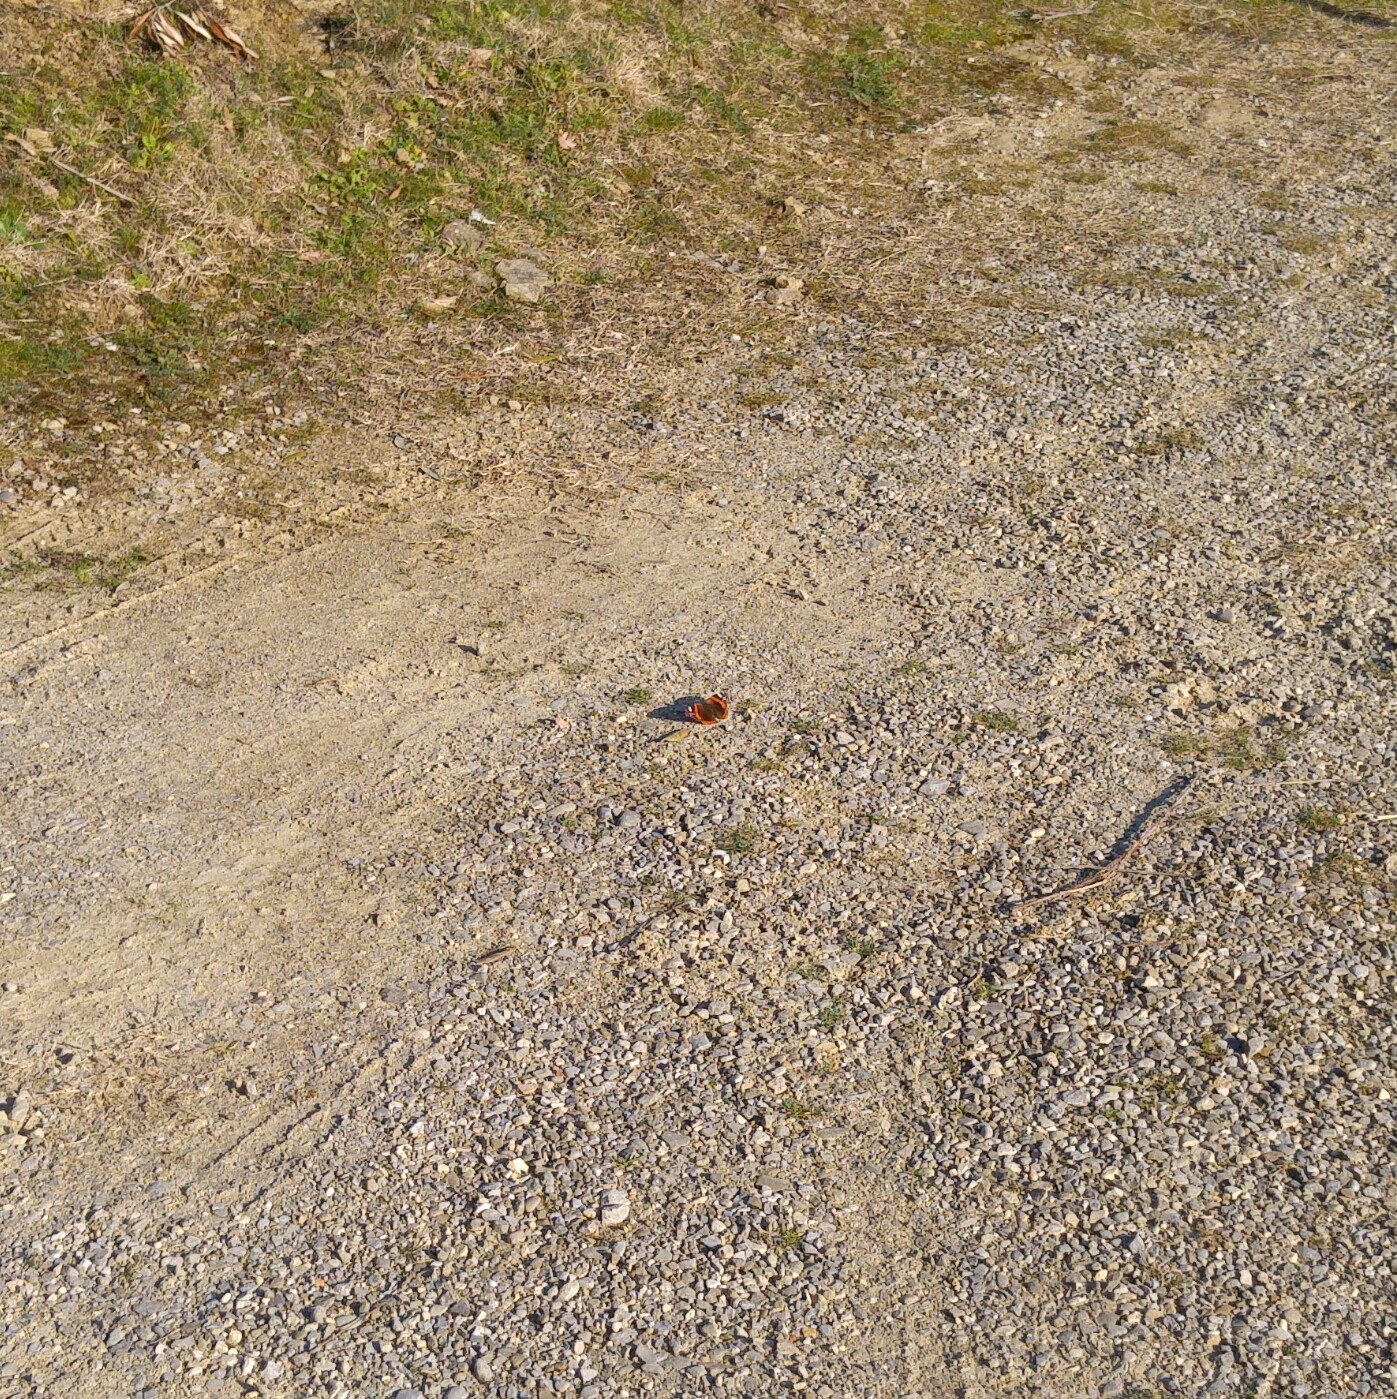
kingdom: Animalia
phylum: Arthropoda
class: Insecta
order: Lepidoptera
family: Nymphalidae
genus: Vanessa
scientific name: Vanessa atalanta
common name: Red admiral
